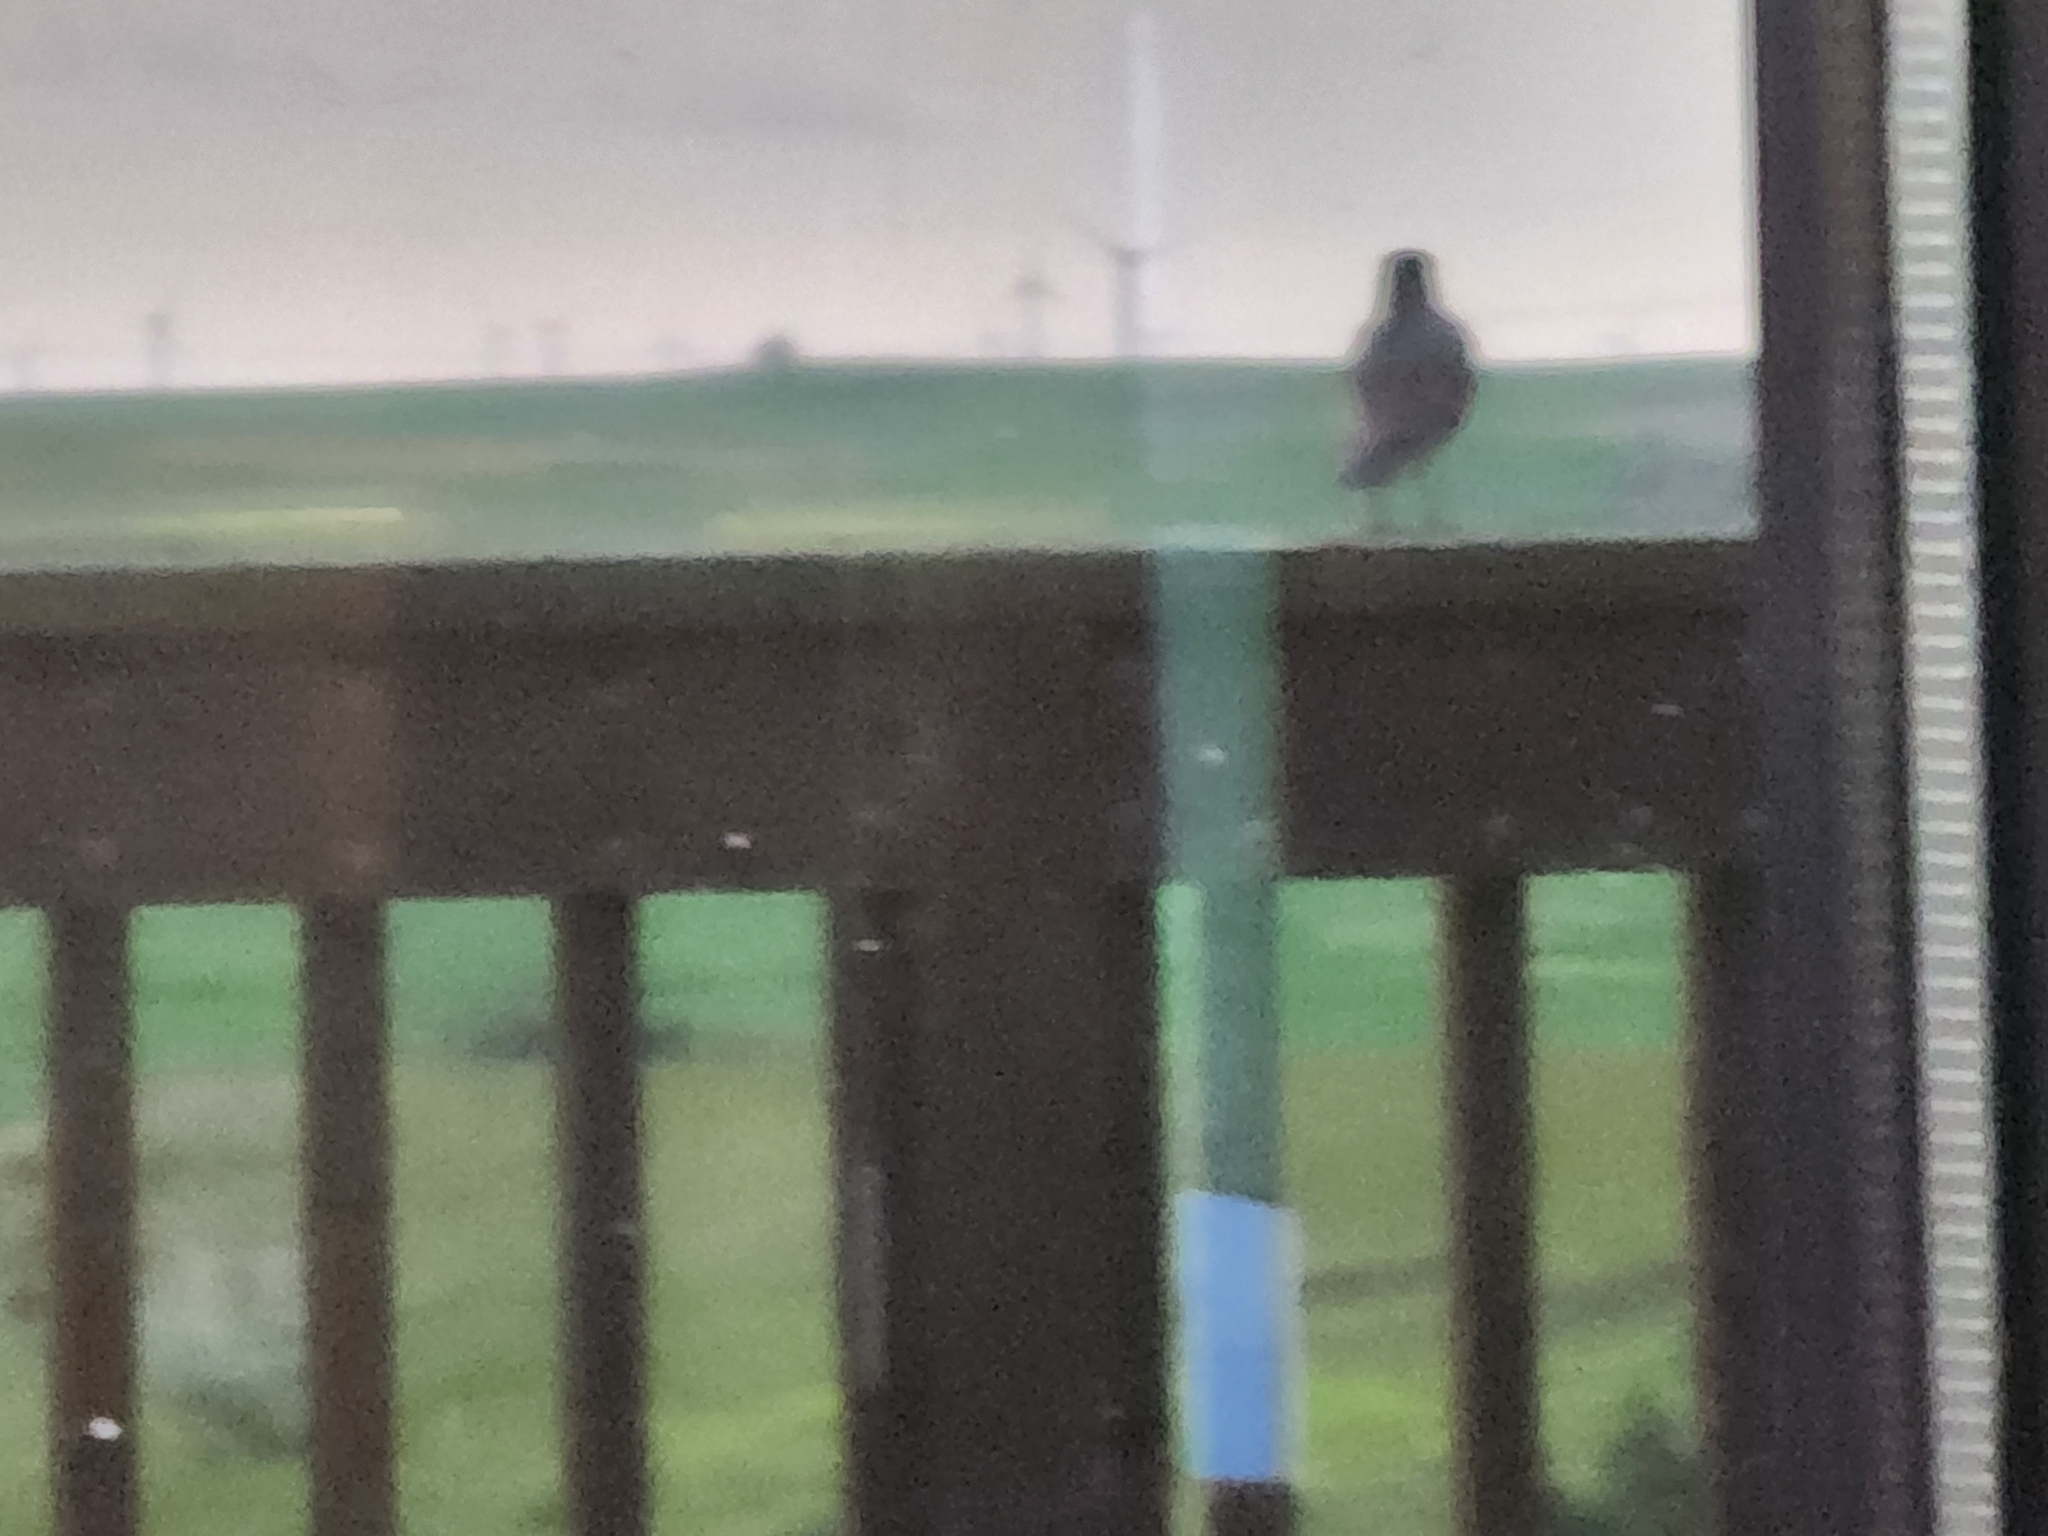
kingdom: Animalia
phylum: Chordata
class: Aves
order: Passeriformes
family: Turdidae
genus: Turdus
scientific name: Turdus migratorius
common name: American robin
